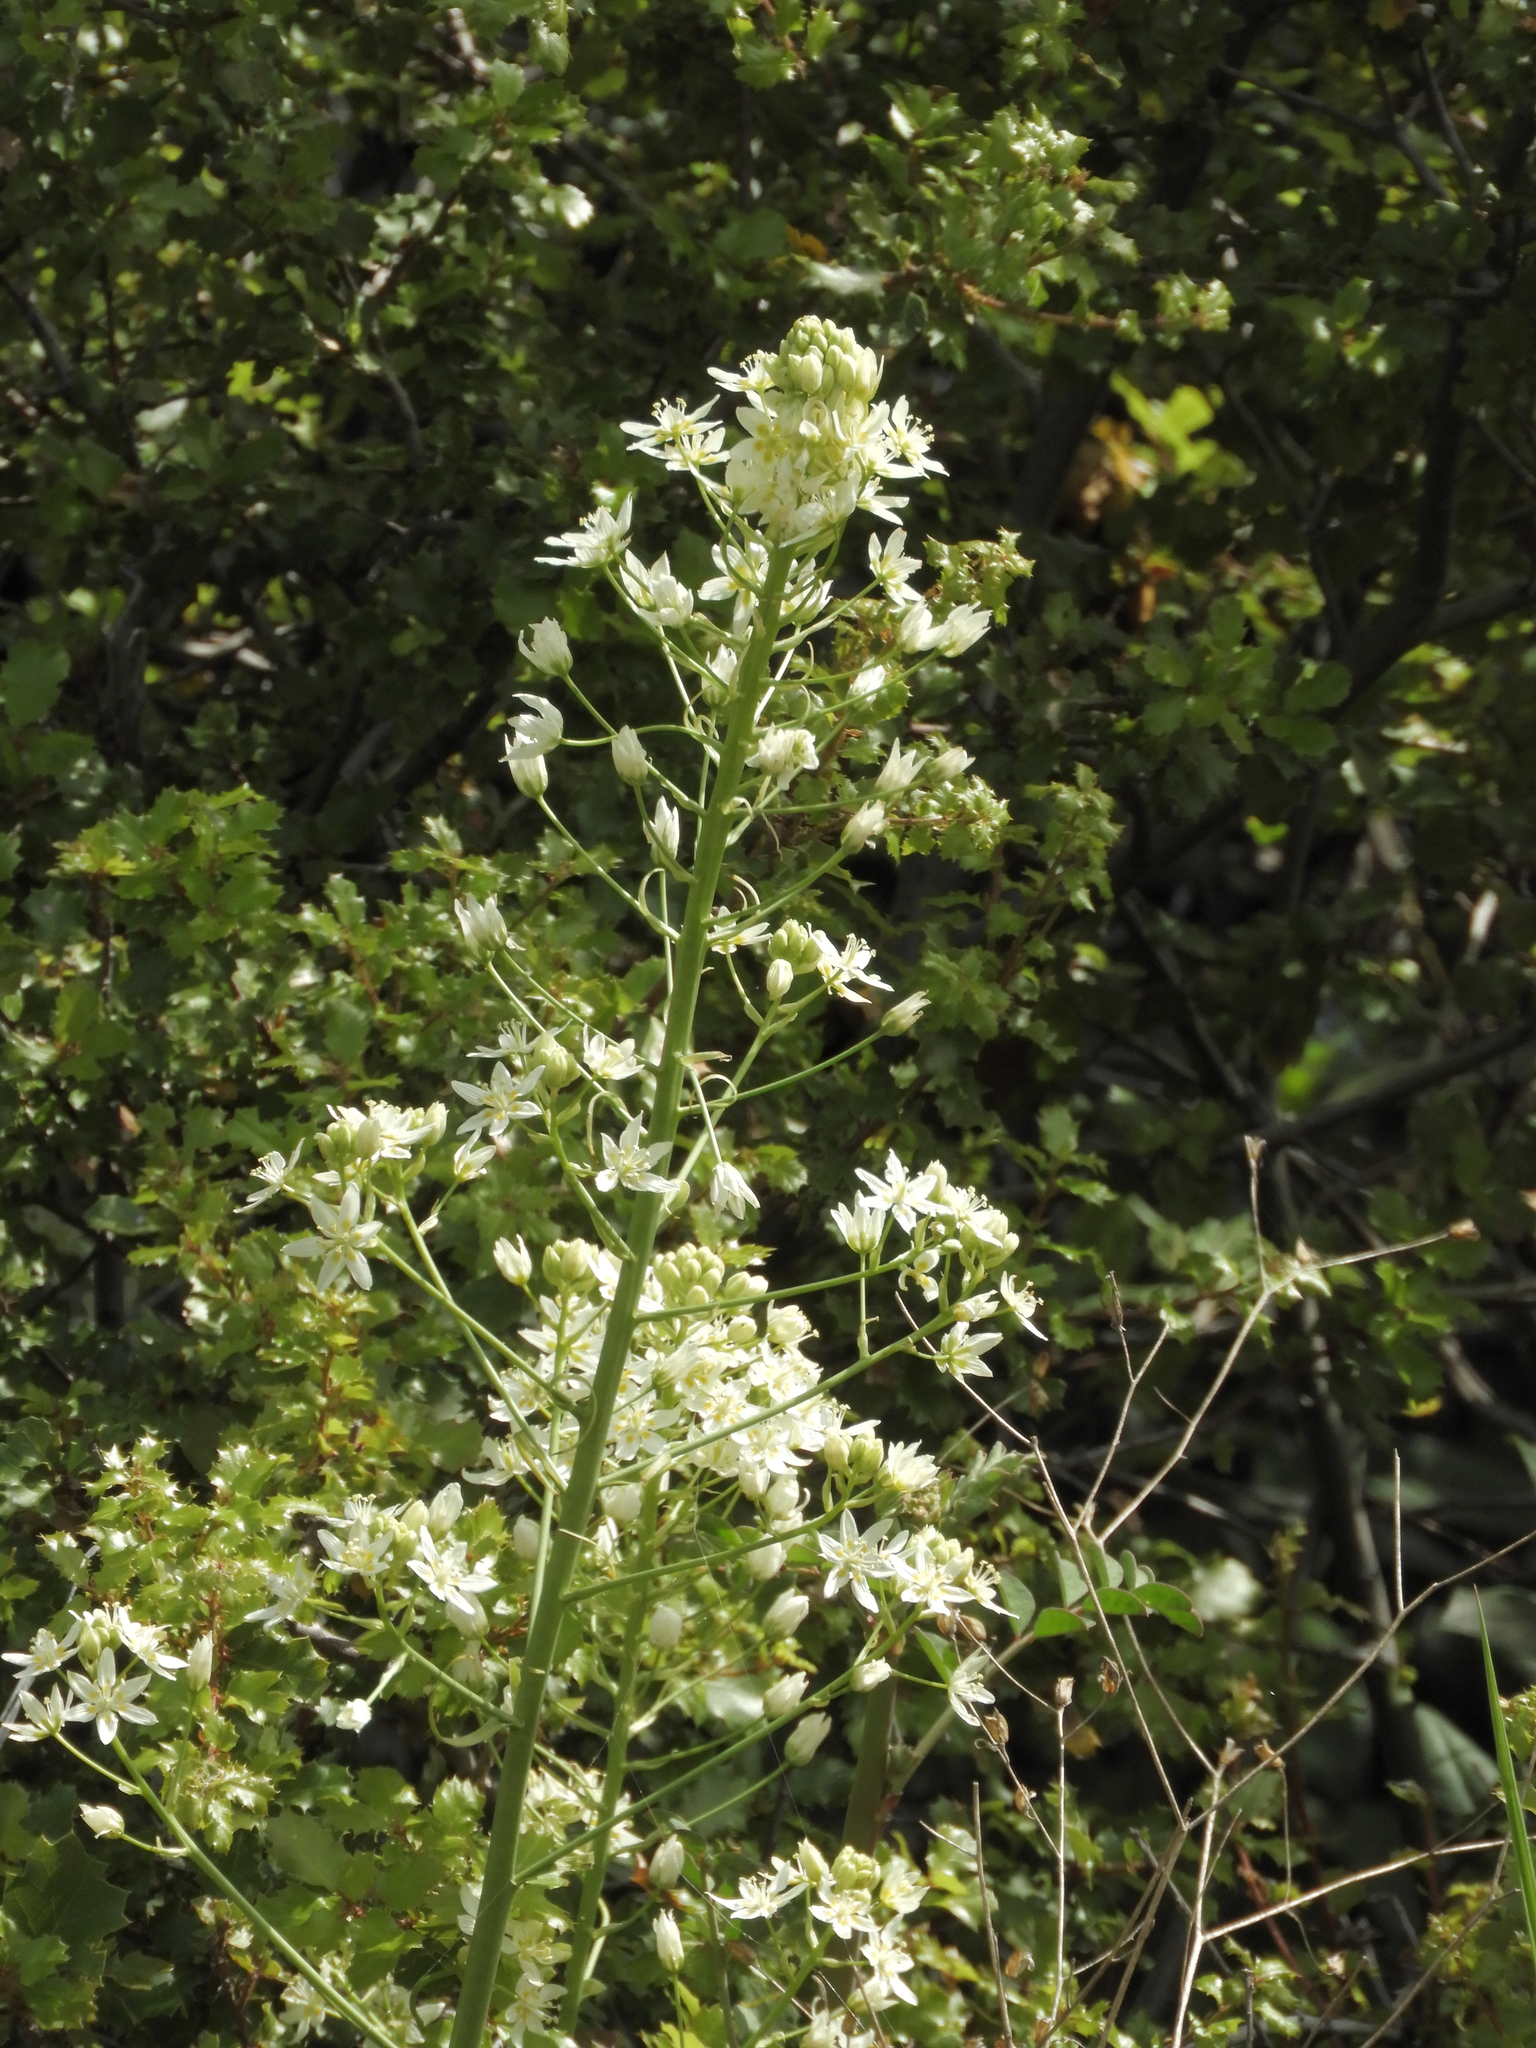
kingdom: Plantae
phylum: Tracheophyta
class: Liliopsida
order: Liliales
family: Melanthiaceae
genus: Toxicoscordion
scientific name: Toxicoscordion fremontii
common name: Fremont's death camas
